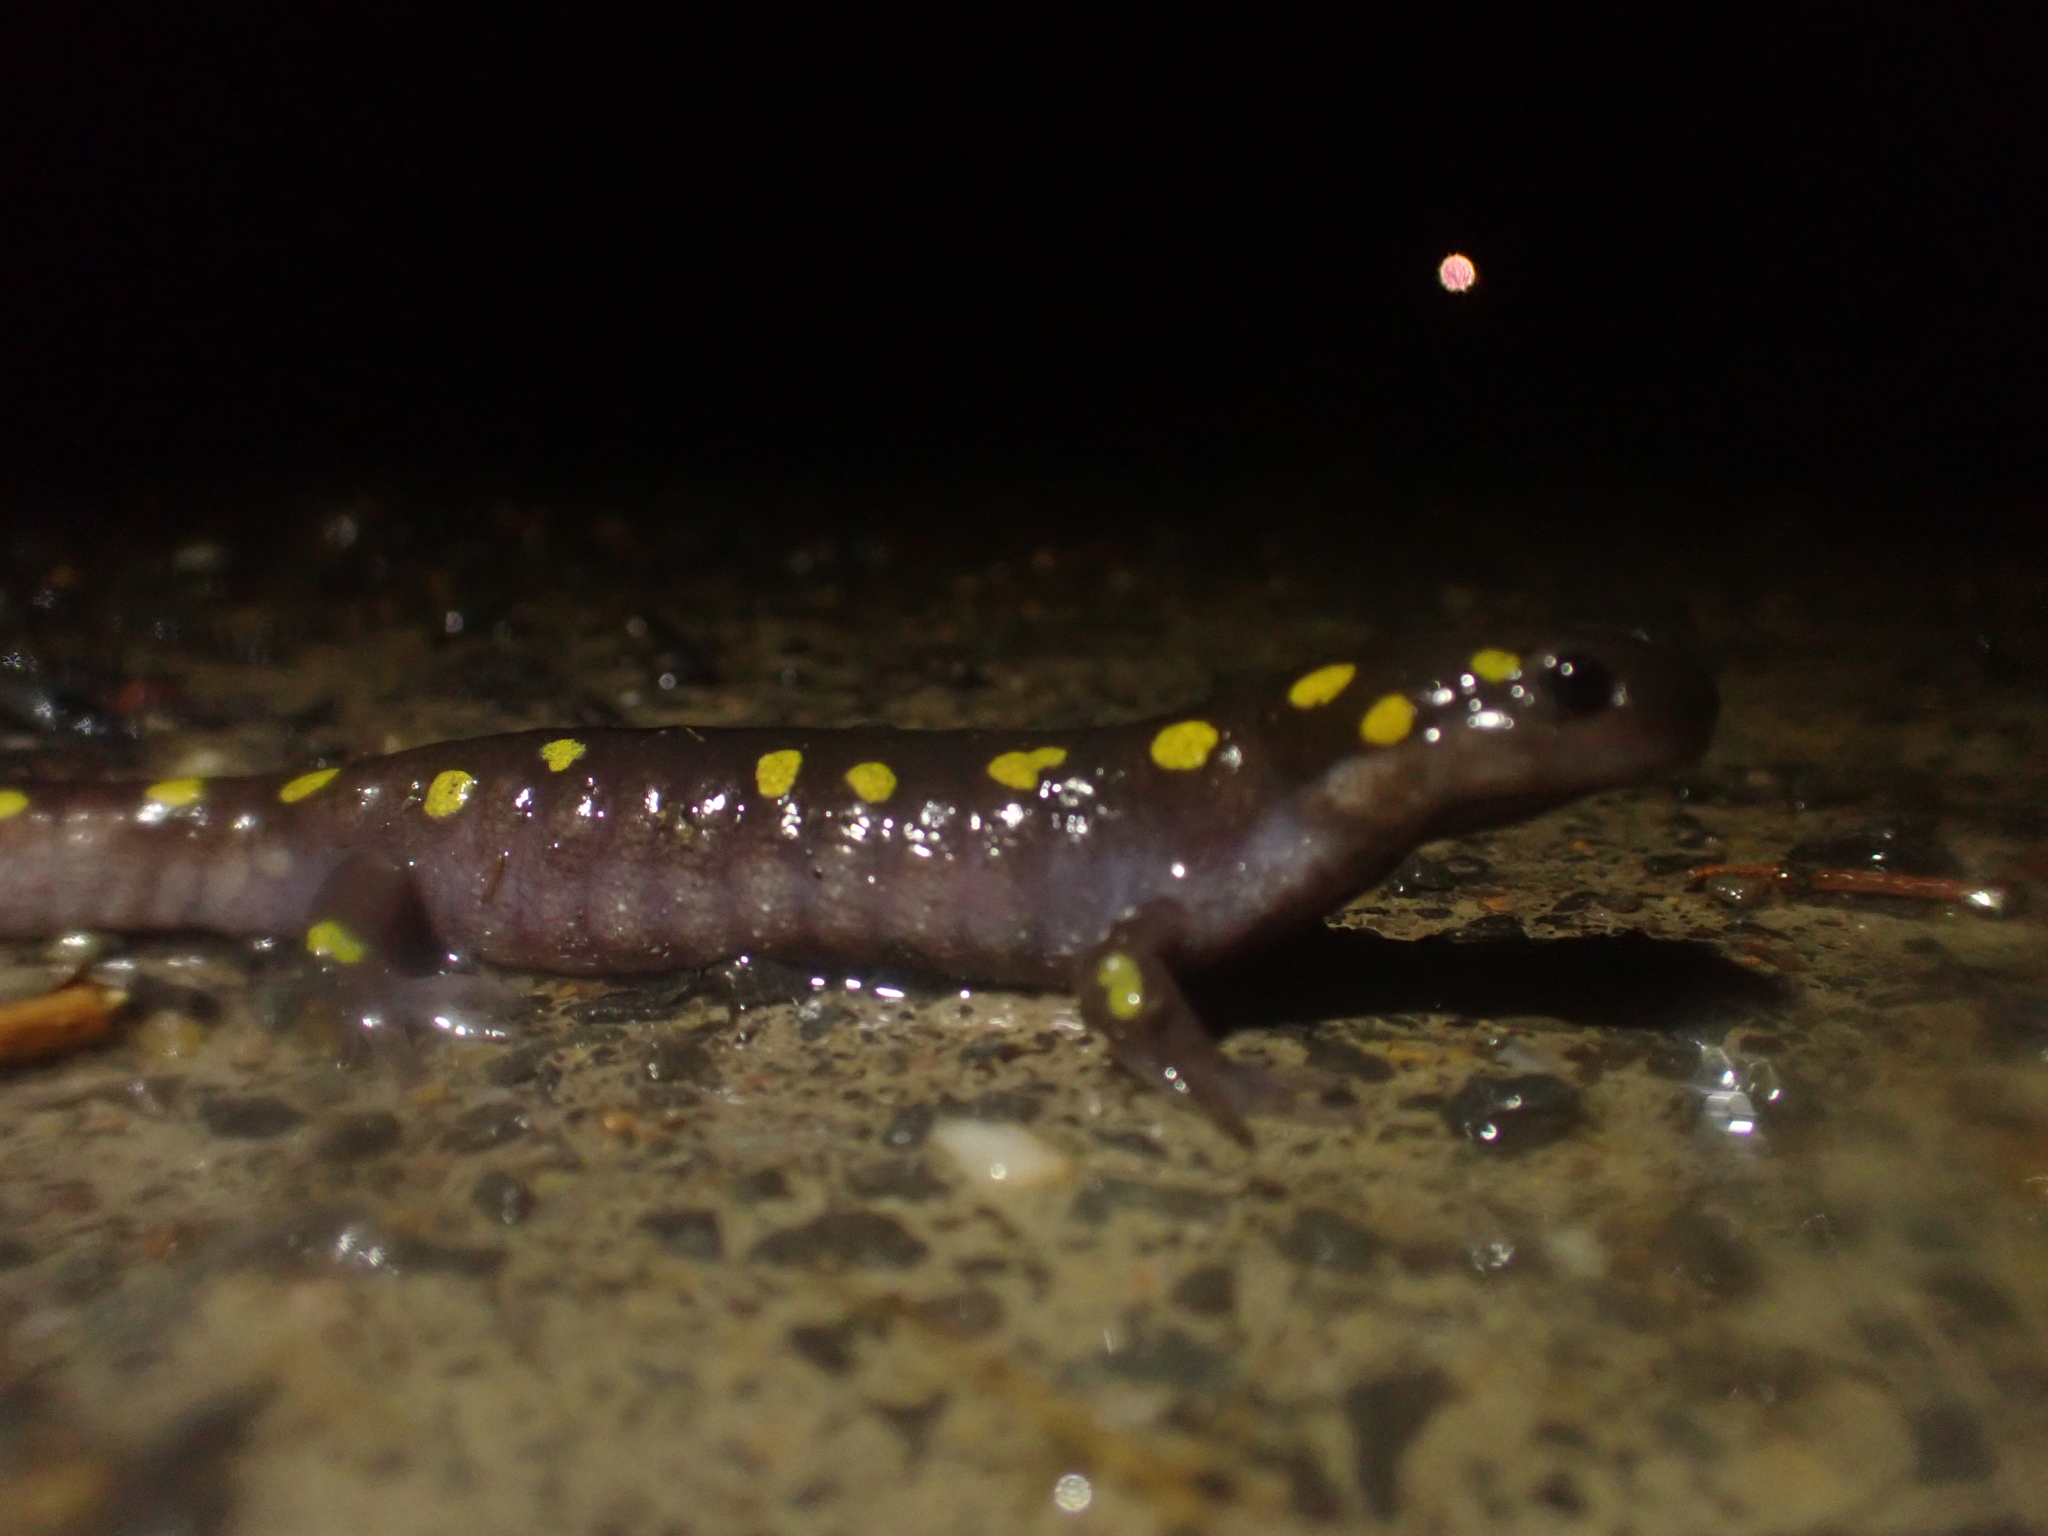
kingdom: Animalia
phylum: Chordata
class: Amphibia
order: Caudata
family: Ambystomatidae
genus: Ambystoma
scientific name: Ambystoma maculatum
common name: Spotted salamander
